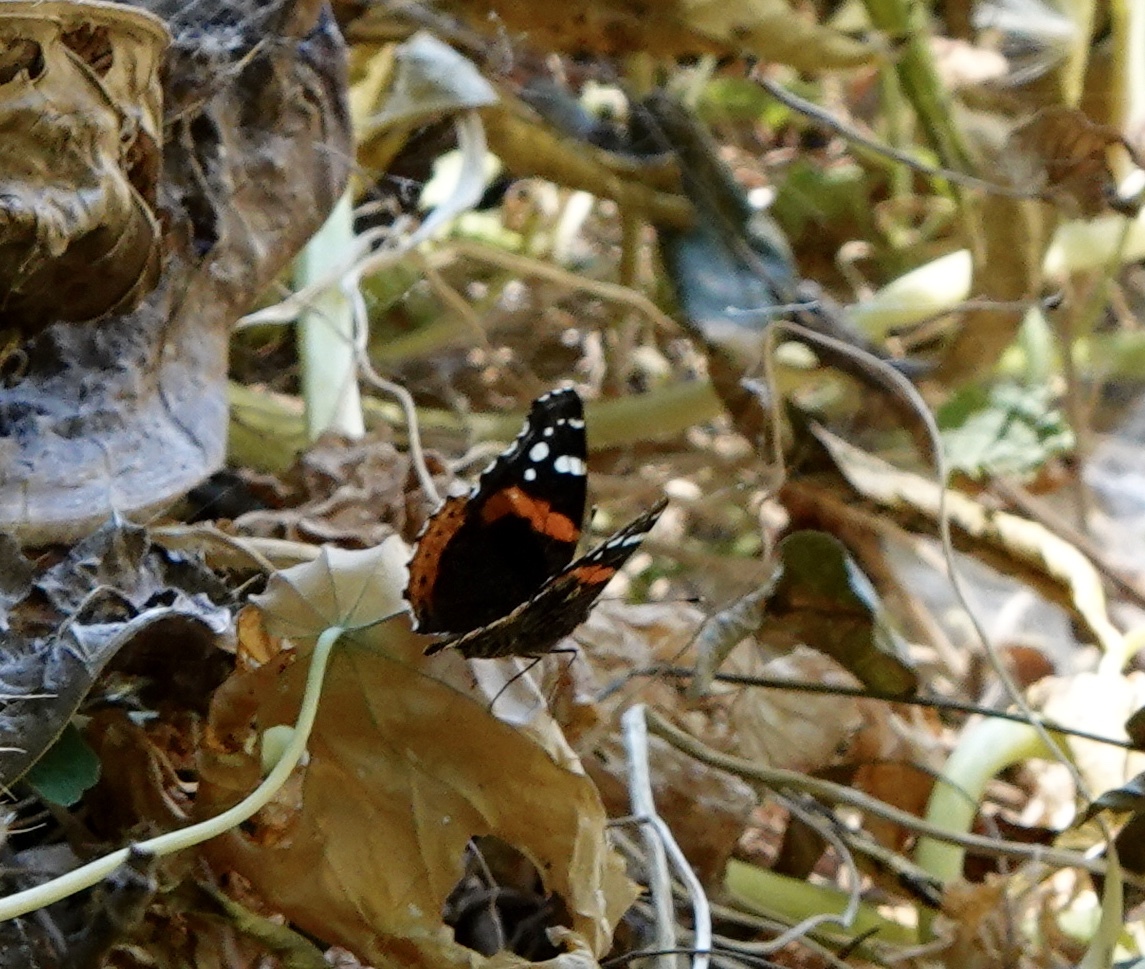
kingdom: Animalia
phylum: Arthropoda
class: Insecta
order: Lepidoptera
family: Nymphalidae
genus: Vanessa
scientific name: Vanessa atalanta
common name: Red admiral
